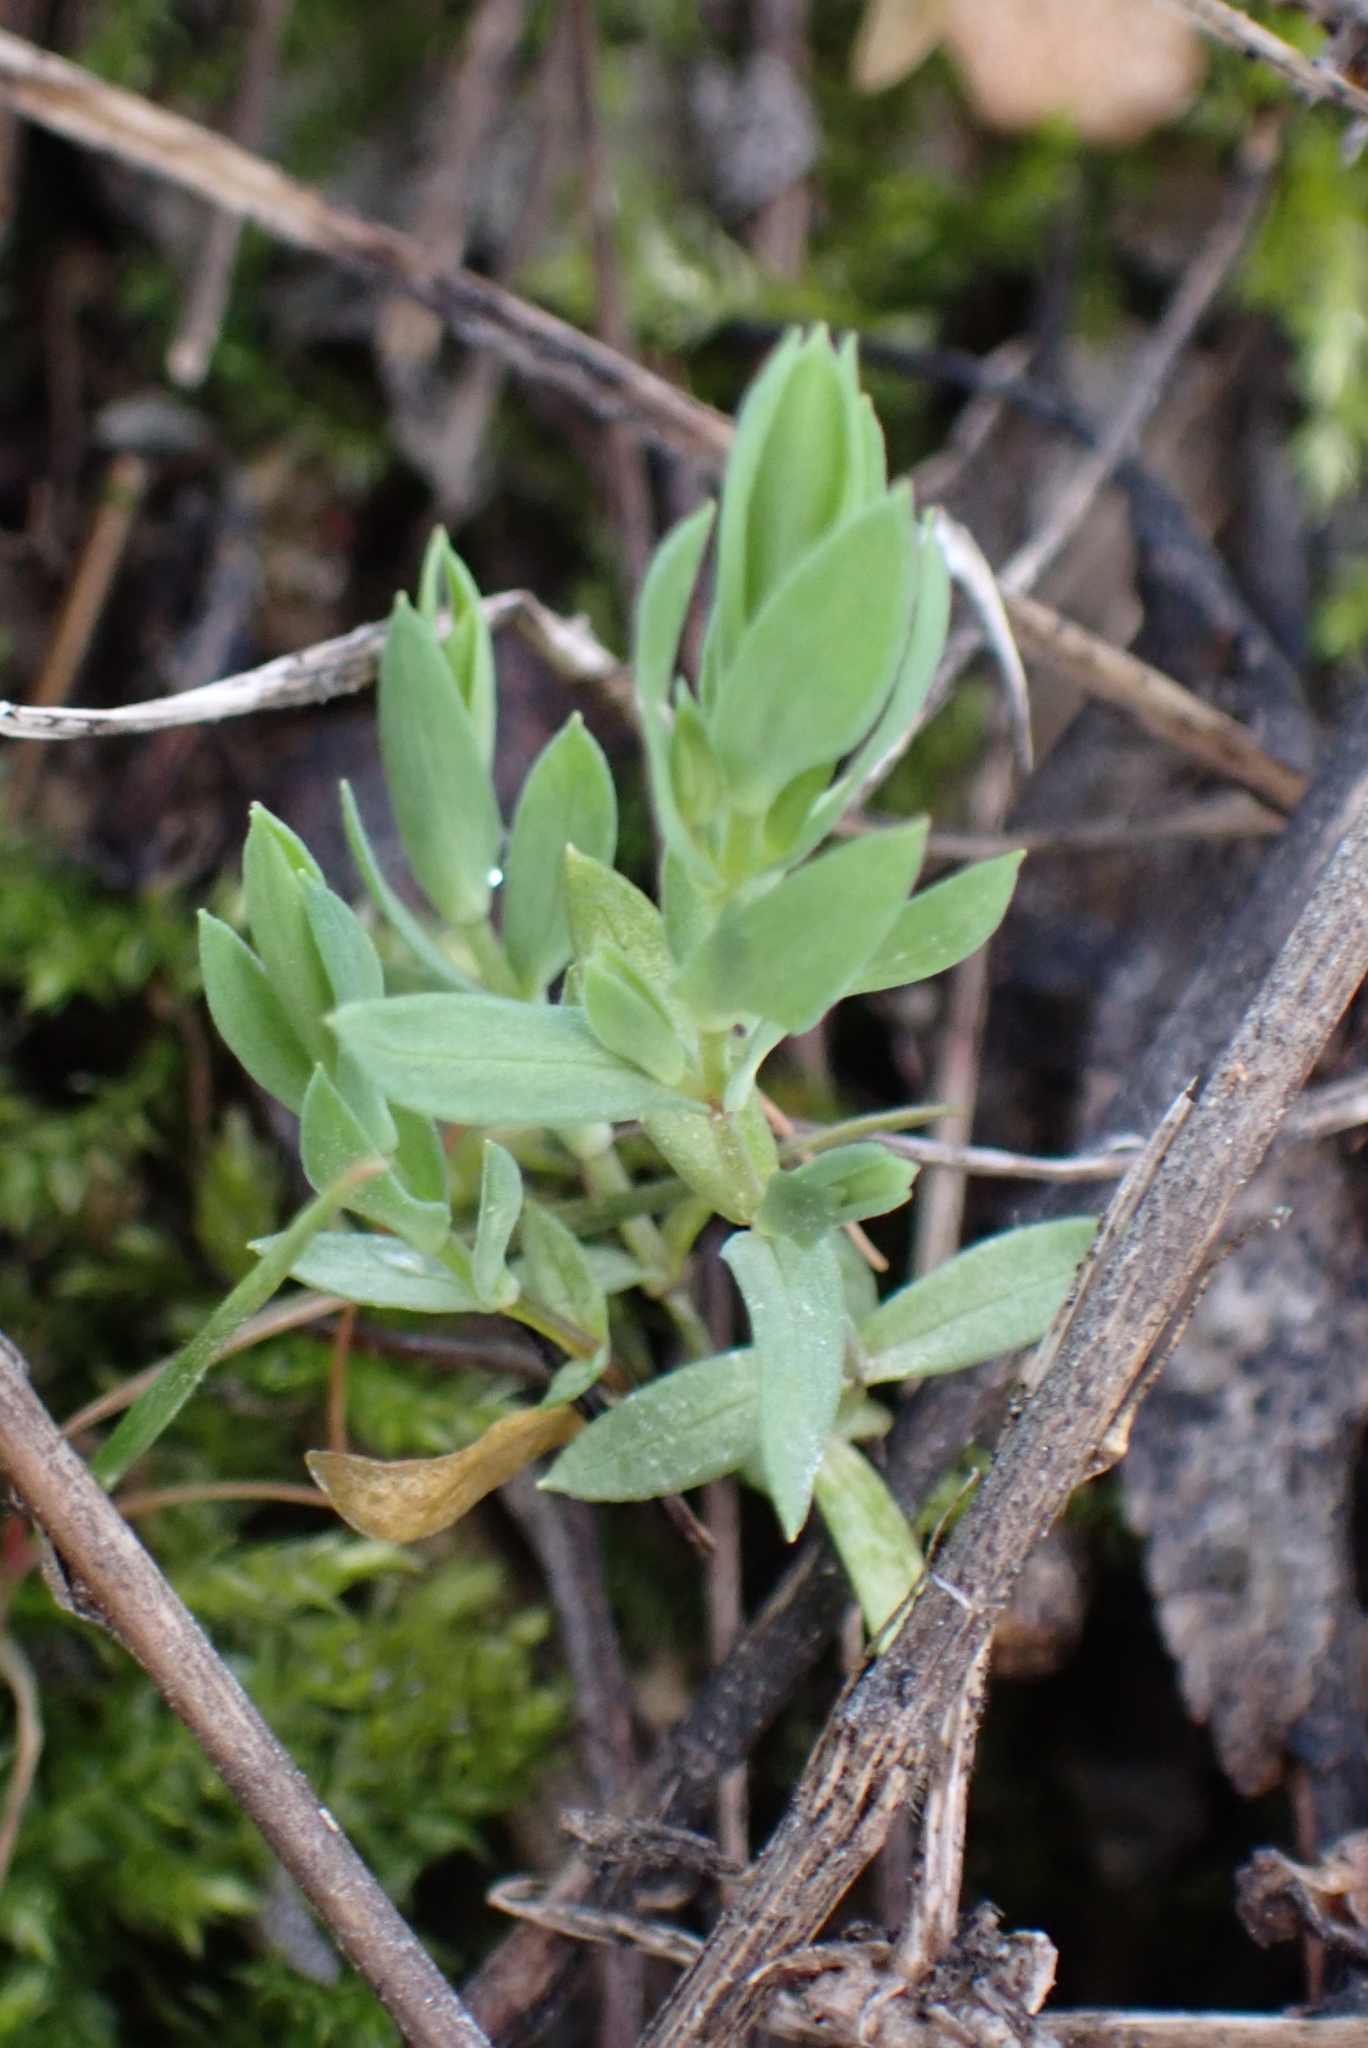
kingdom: Plantae
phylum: Tracheophyta
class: Magnoliopsida
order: Ericales
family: Primulaceae
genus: Lysimachia
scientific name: Lysimachia linum-stellatum
